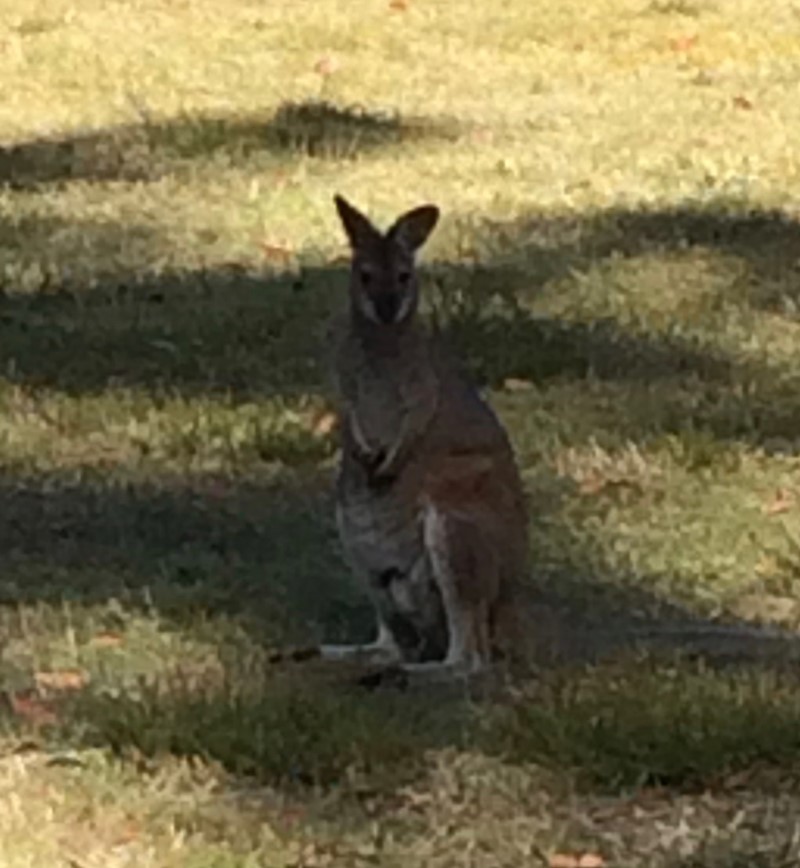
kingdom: Animalia
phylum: Chordata
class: Mammalia
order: Diprotodontia
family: Macropodidae
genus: Notamacropus
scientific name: Notamacropus rufogriseus
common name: Red-necked wallaby
